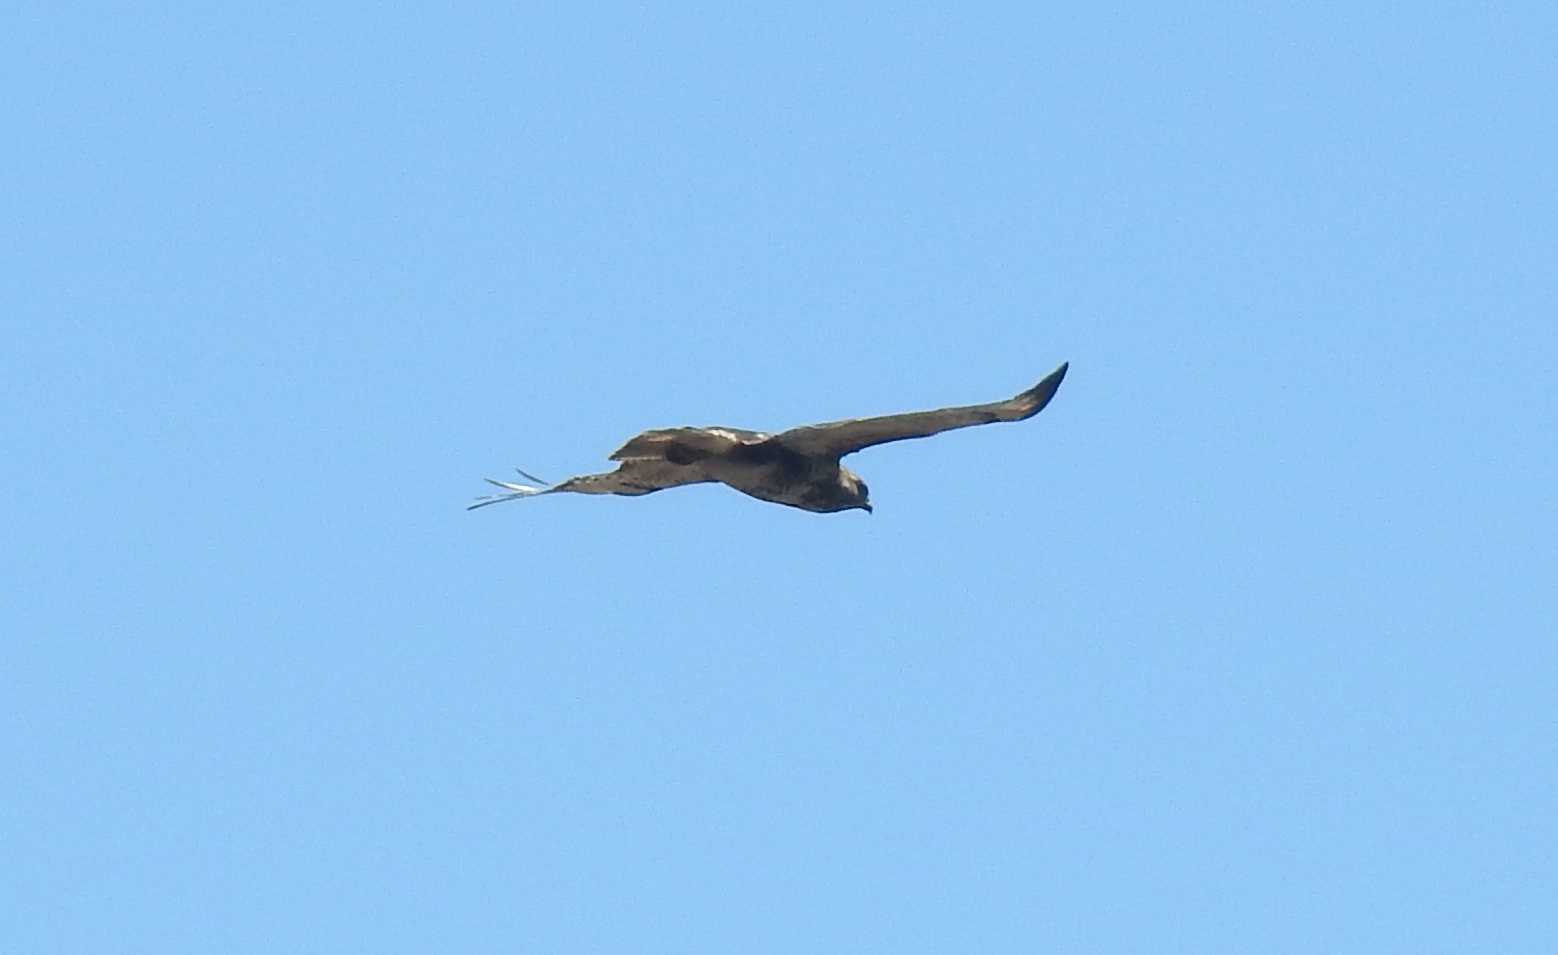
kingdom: Animalia
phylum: Chordata
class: Aves
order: Accipitriformes
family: Accipitridae
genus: Buteo
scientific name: Buteo trizonatus
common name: Forest buzzard
